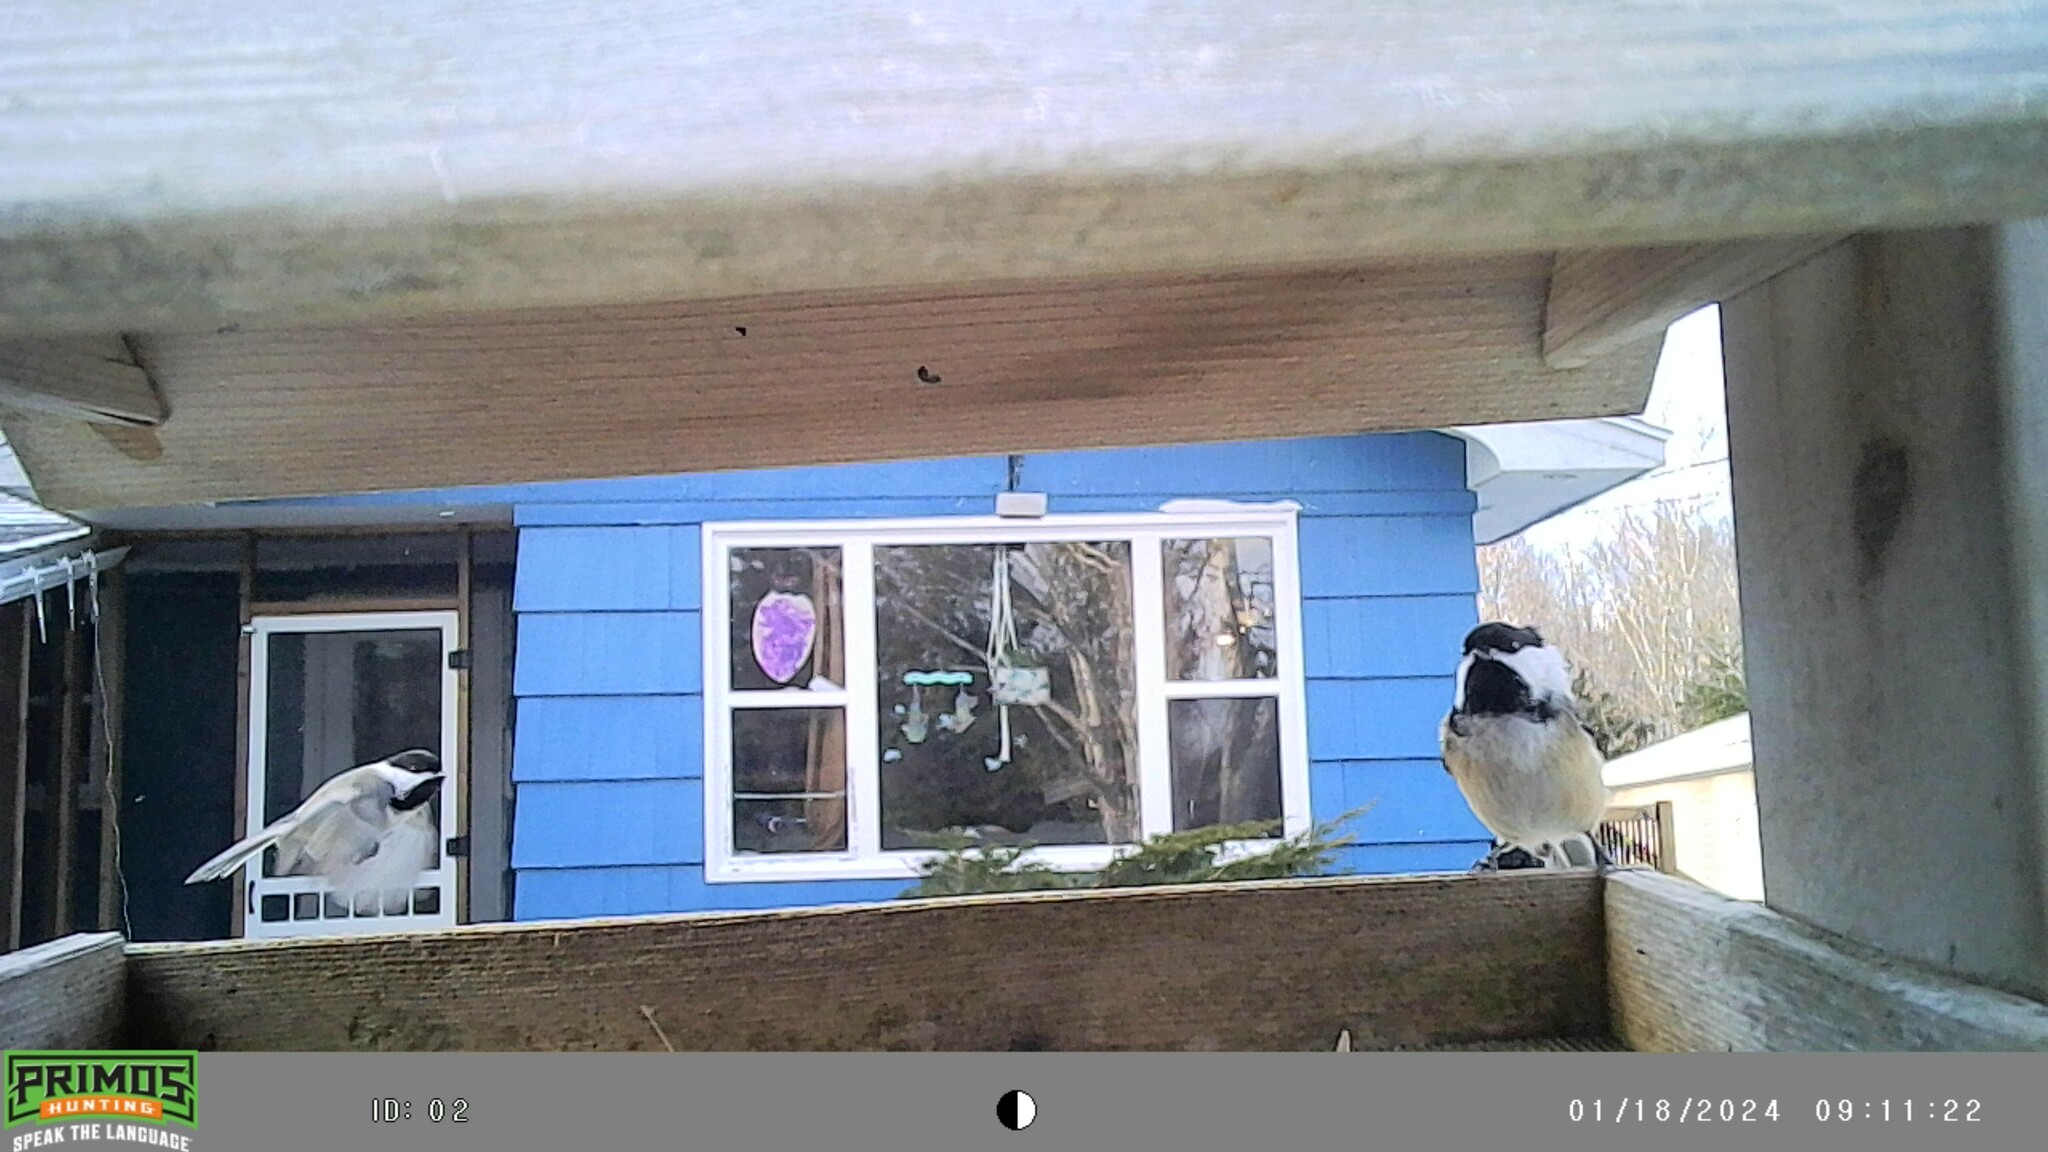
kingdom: Animalia
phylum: Chordata
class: Aves
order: Passeriformes
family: Paridae
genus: Poecile
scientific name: Poecile atricapillus
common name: Black-capped chickadee
